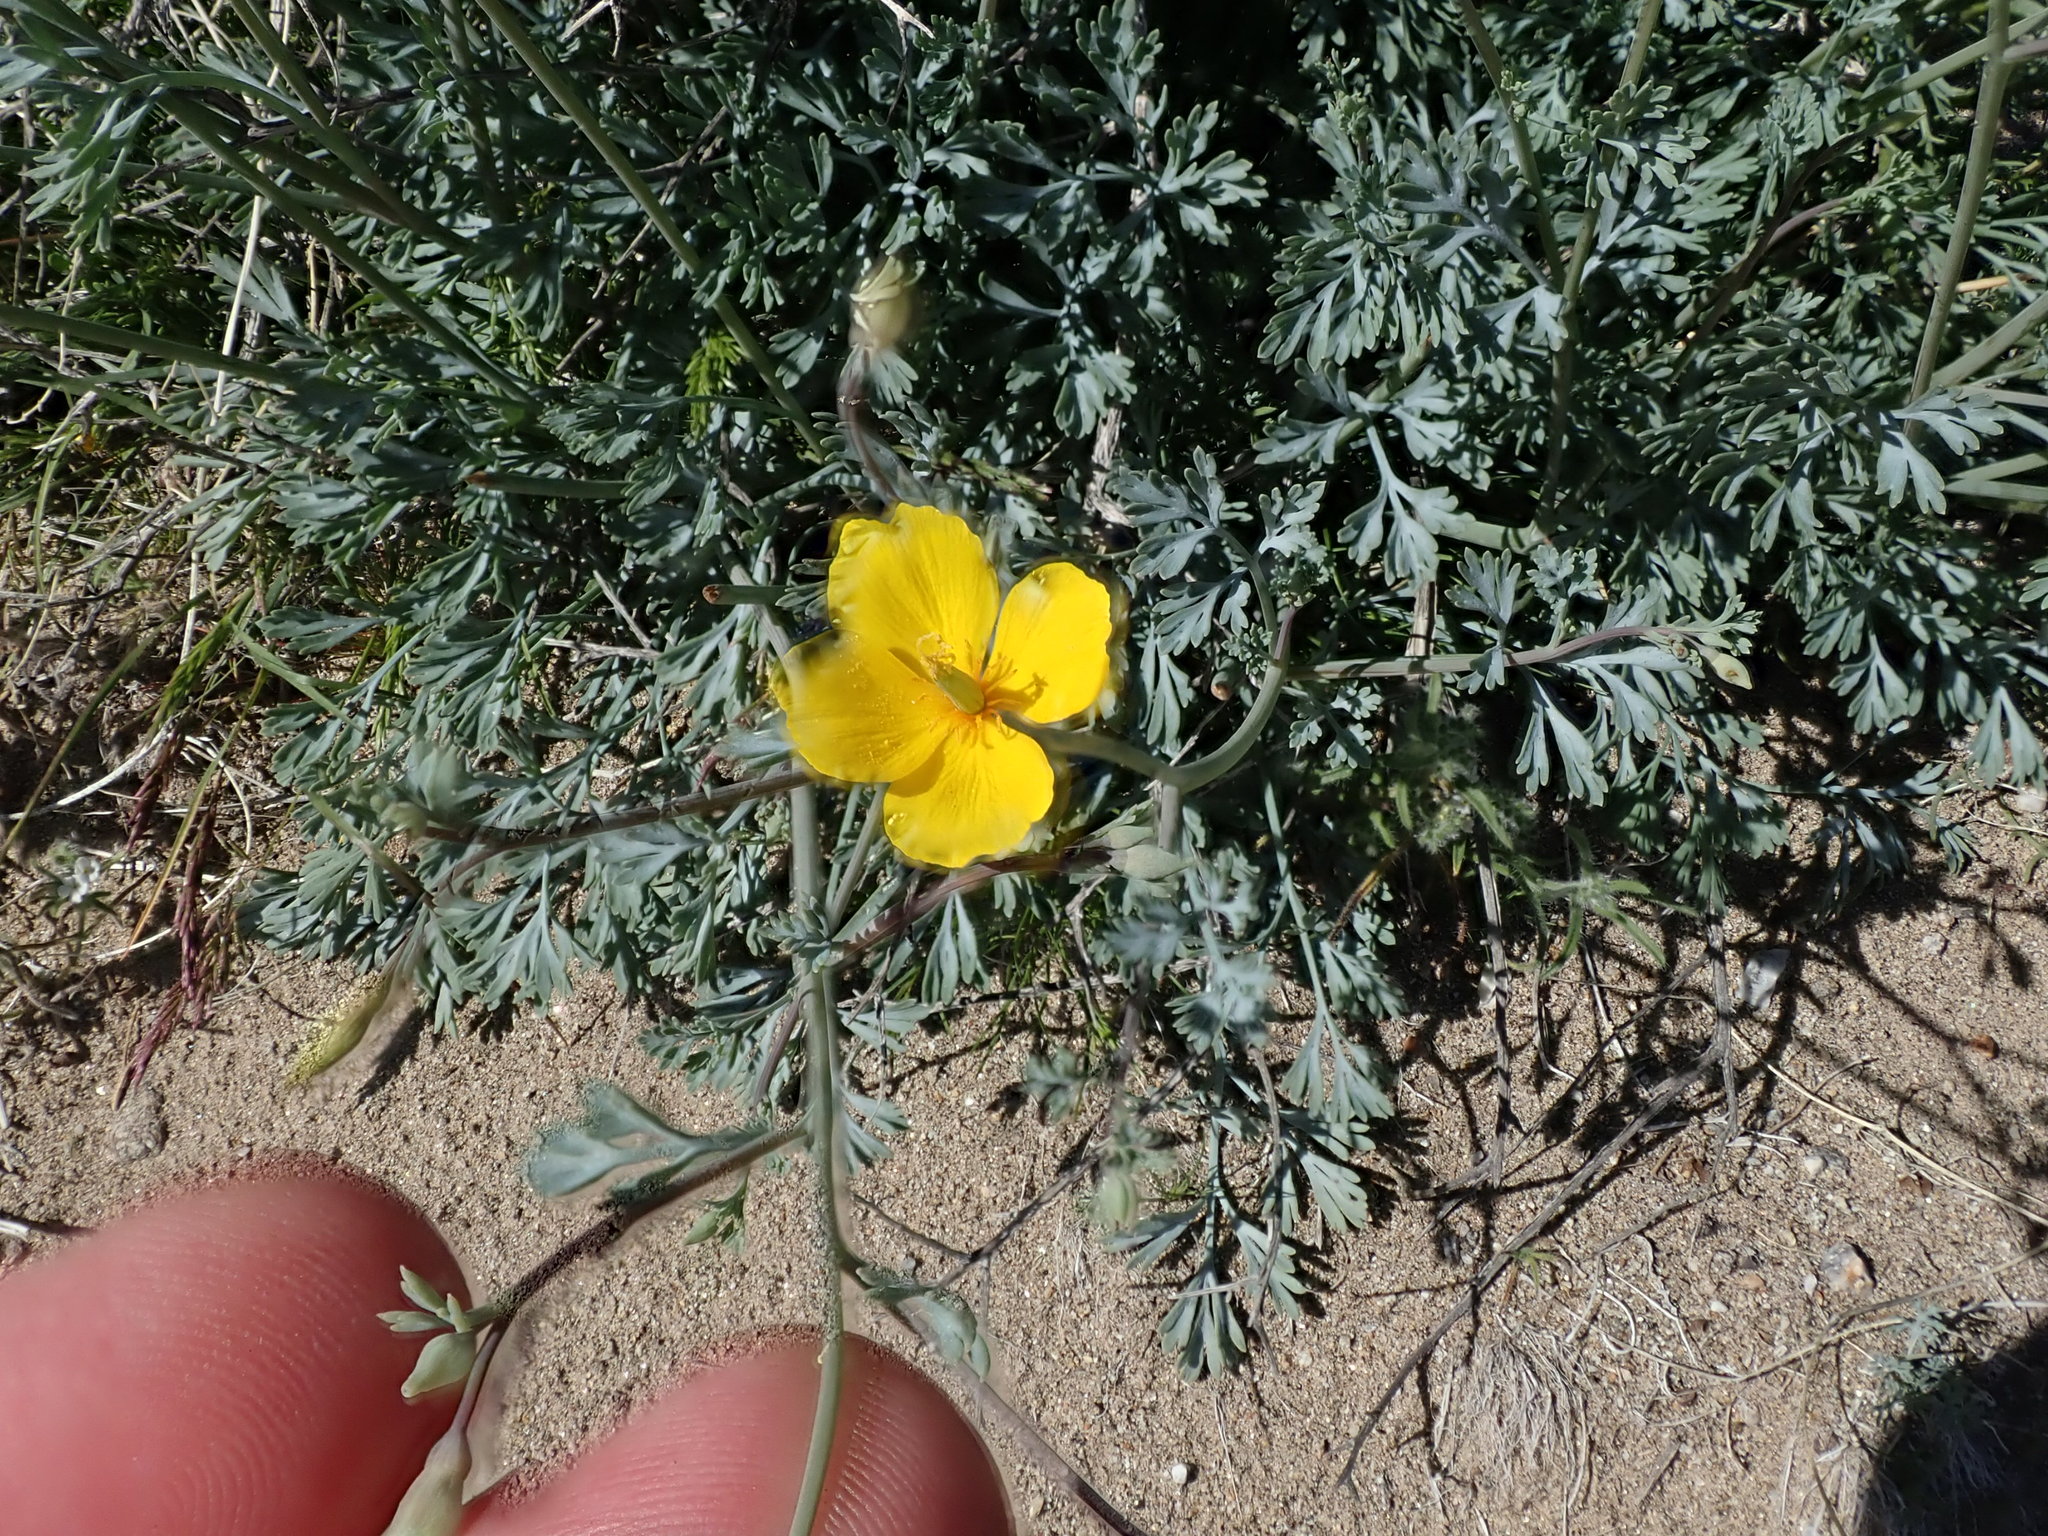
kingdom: Plantae
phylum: Tracheophyta
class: Magnoliopsida
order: Ranunculales
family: Papaveraceae
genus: Eschscholzia
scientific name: Eschscholzia minutiflora
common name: Small-flower california-poppy
